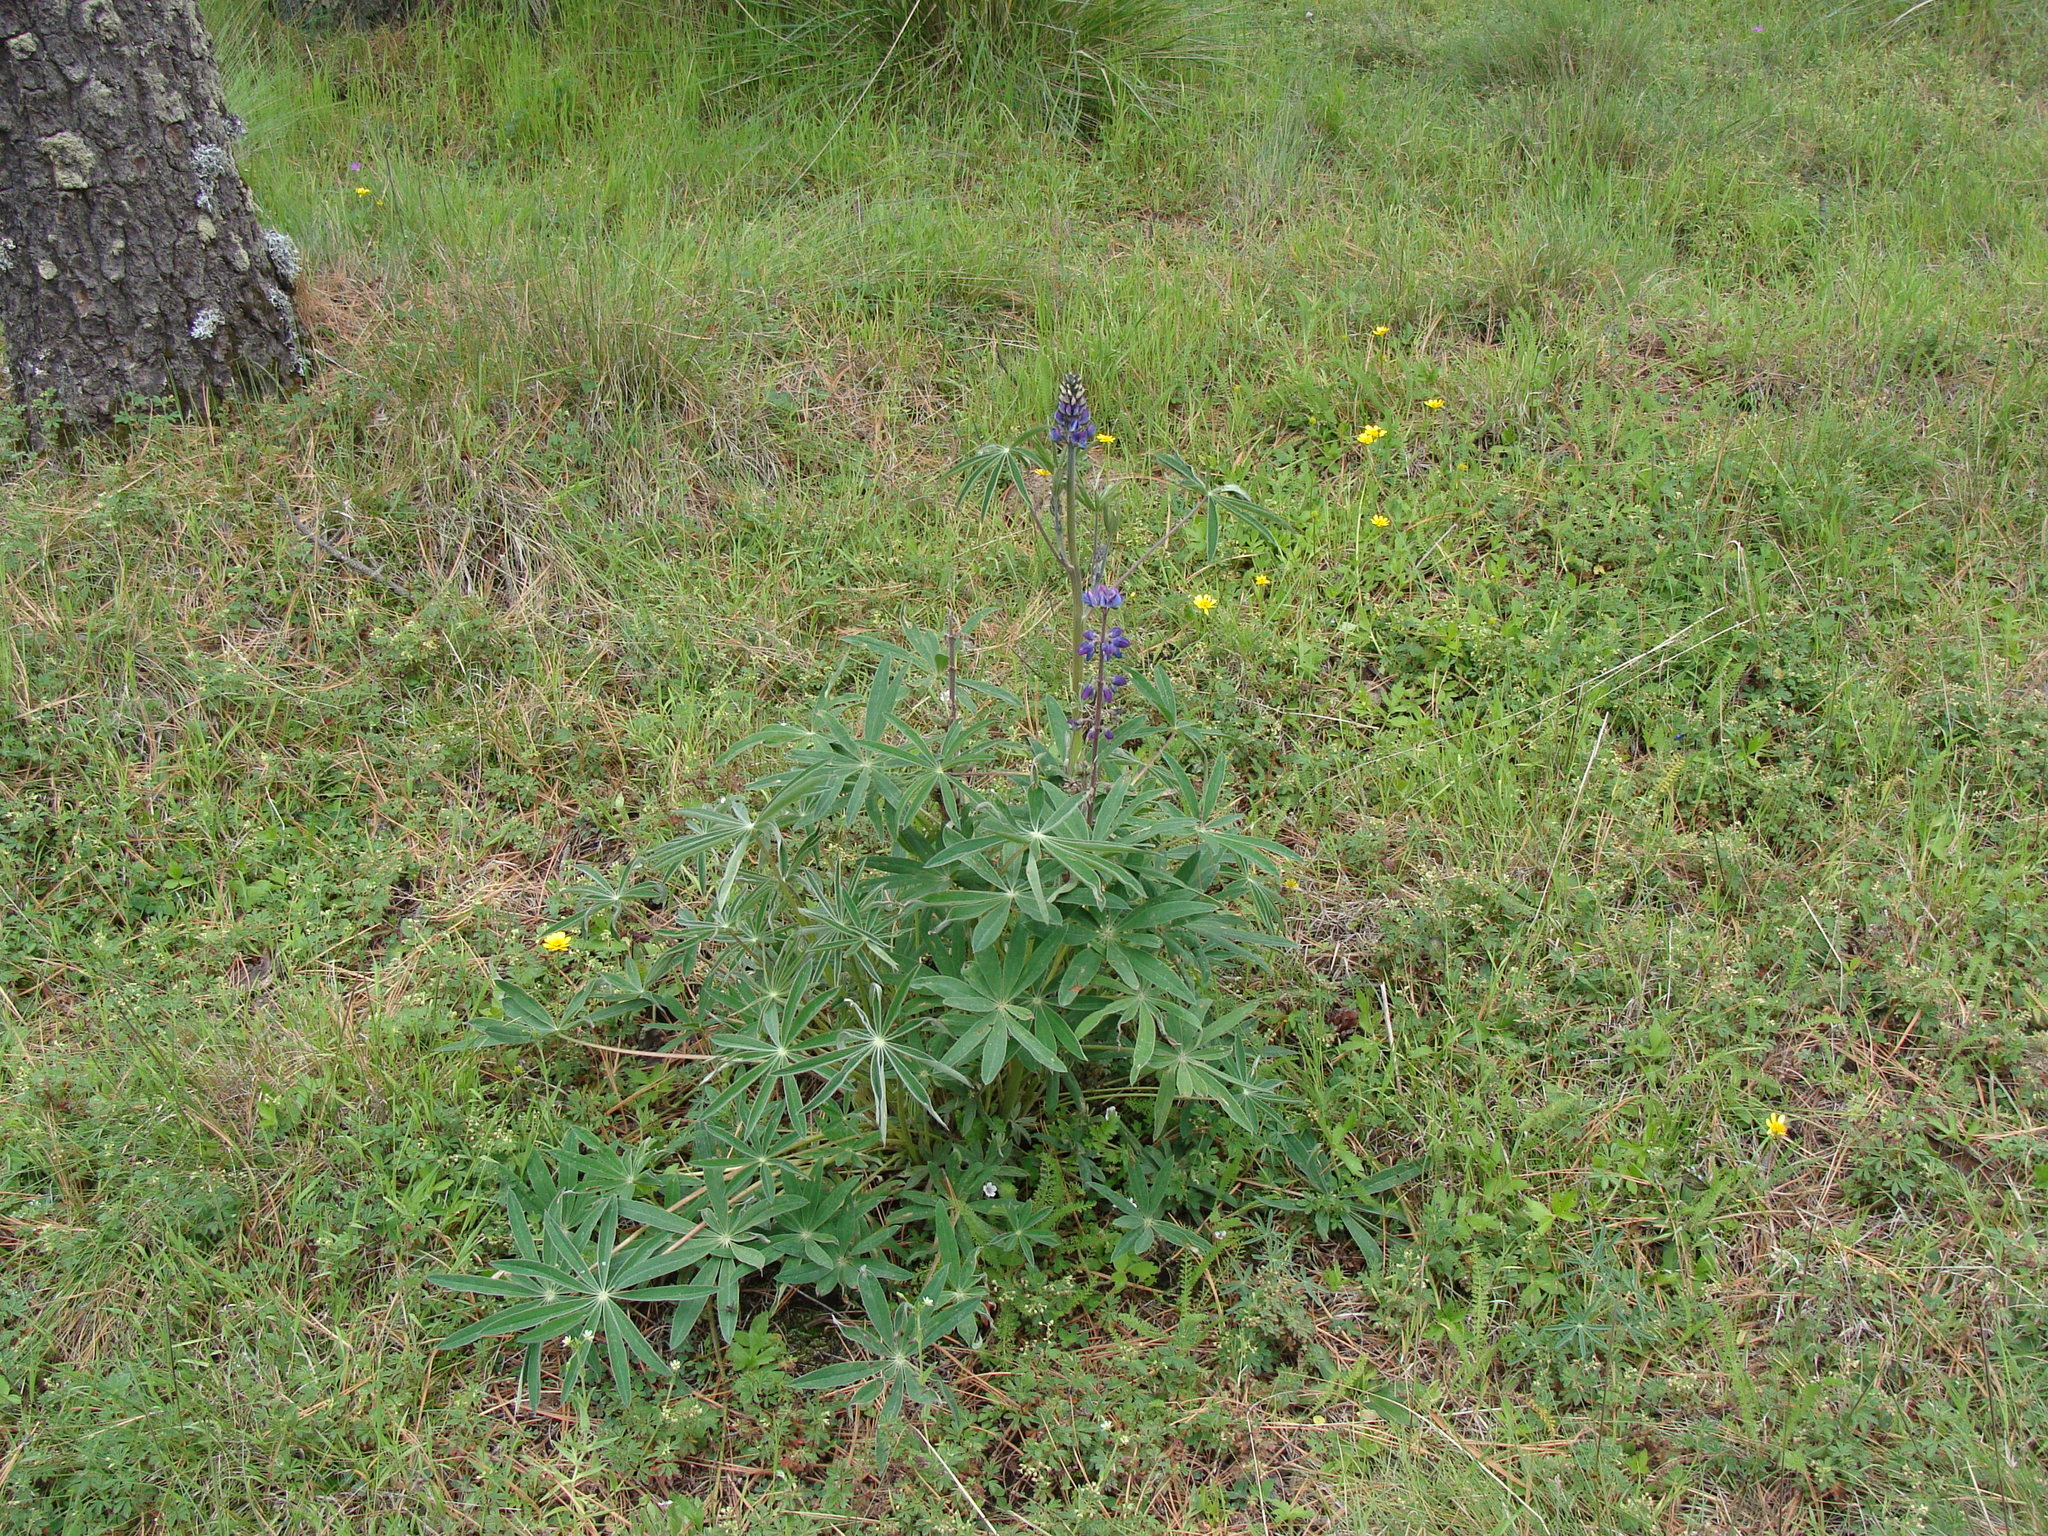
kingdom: Plantae
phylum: Tracheophyta
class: Magnoliopsida
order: Fabales
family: Fabaceae
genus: Lupinus
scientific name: Lupinus montanus
